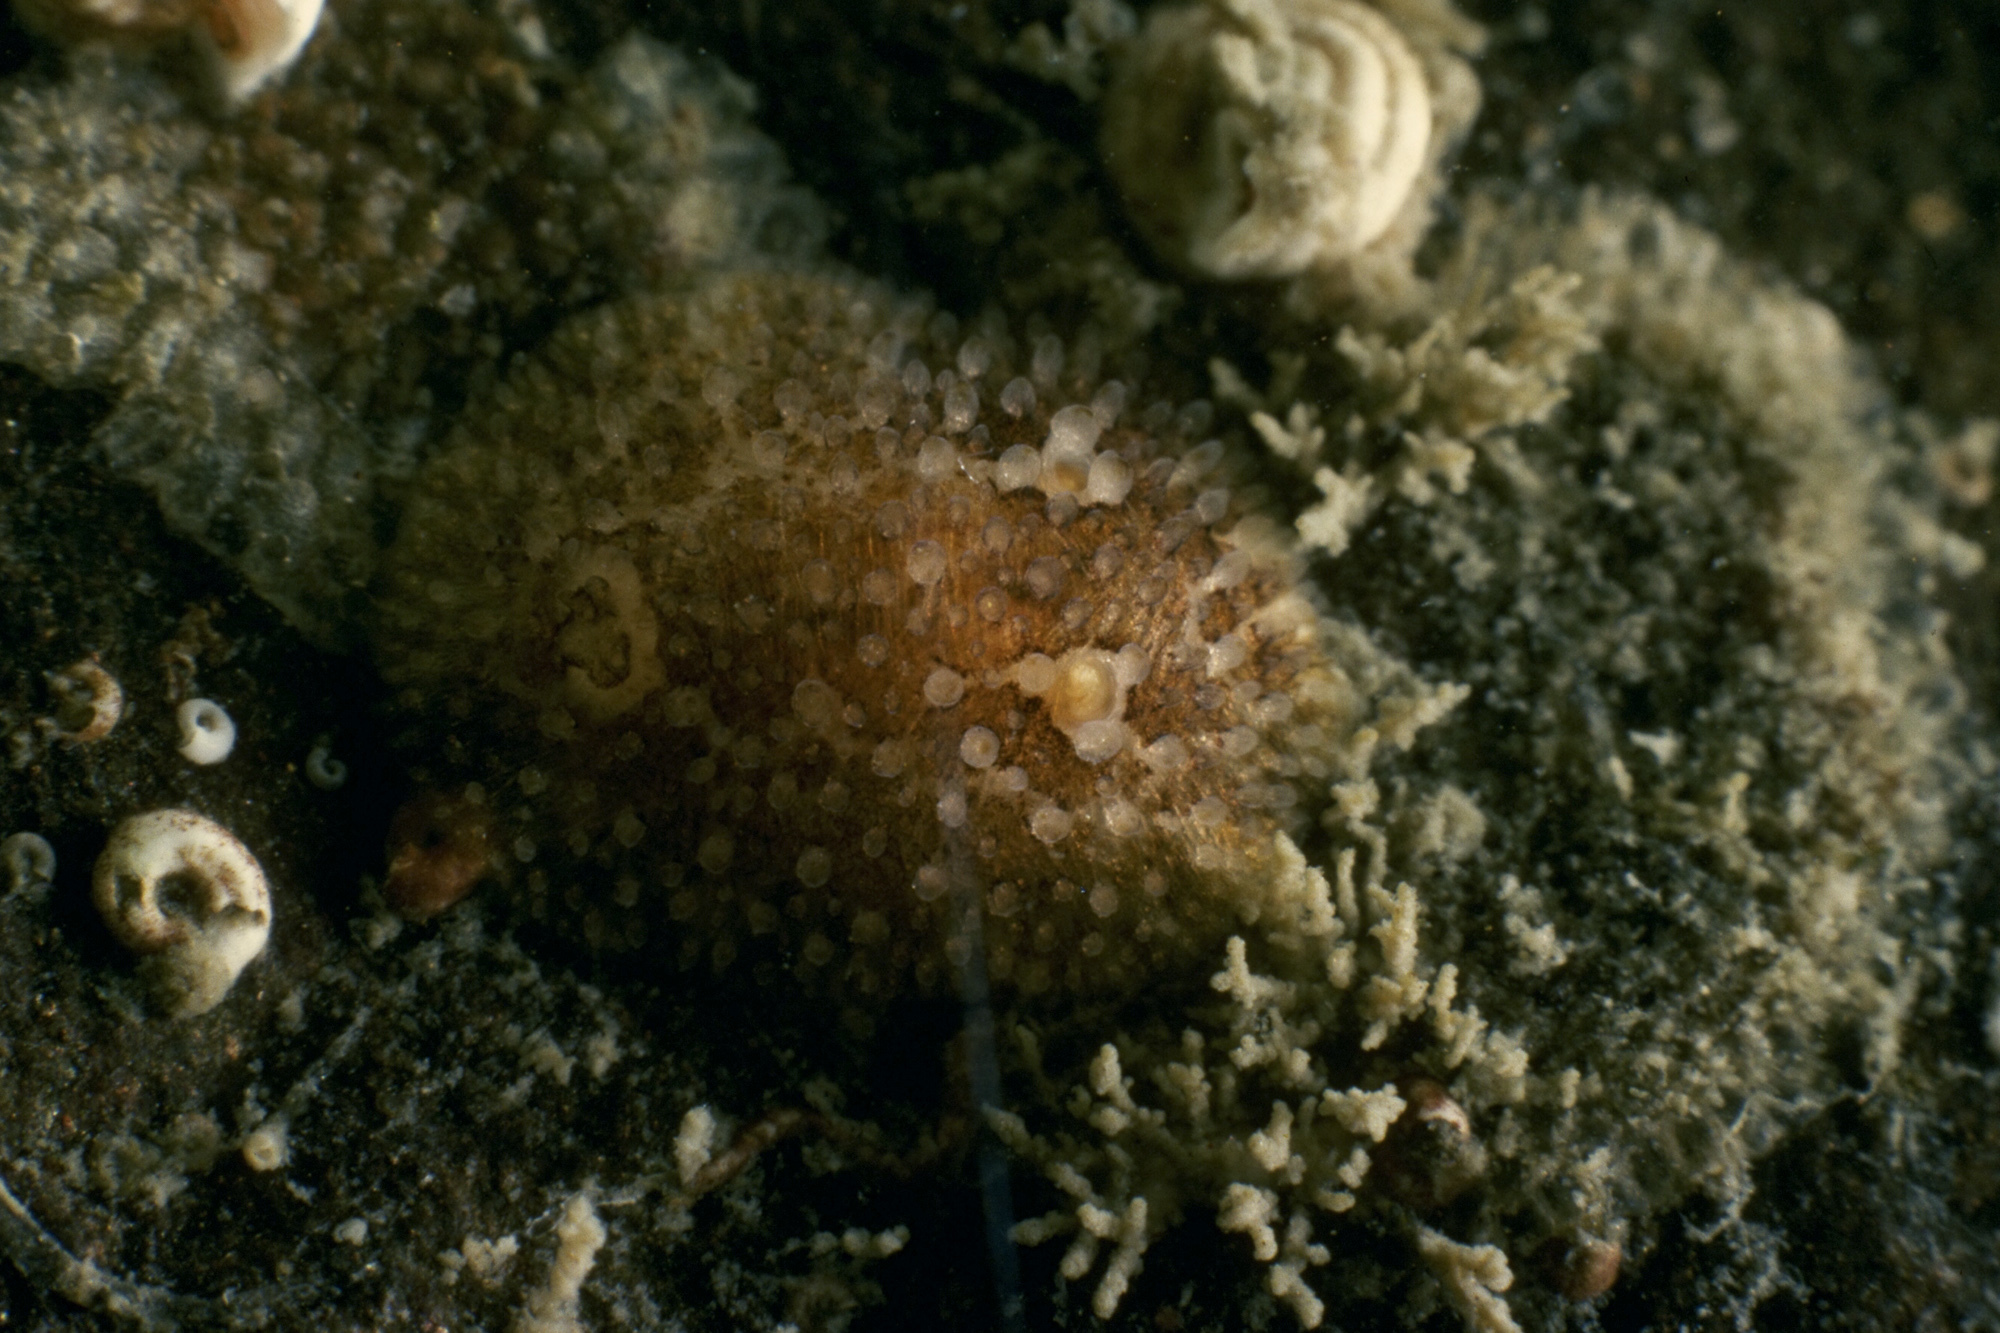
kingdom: Animalia
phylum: Mollusca
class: Gastropoda
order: Nudibranchia
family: Onchidorididae
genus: Atalodoris
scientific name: Atalodoris sparsa
